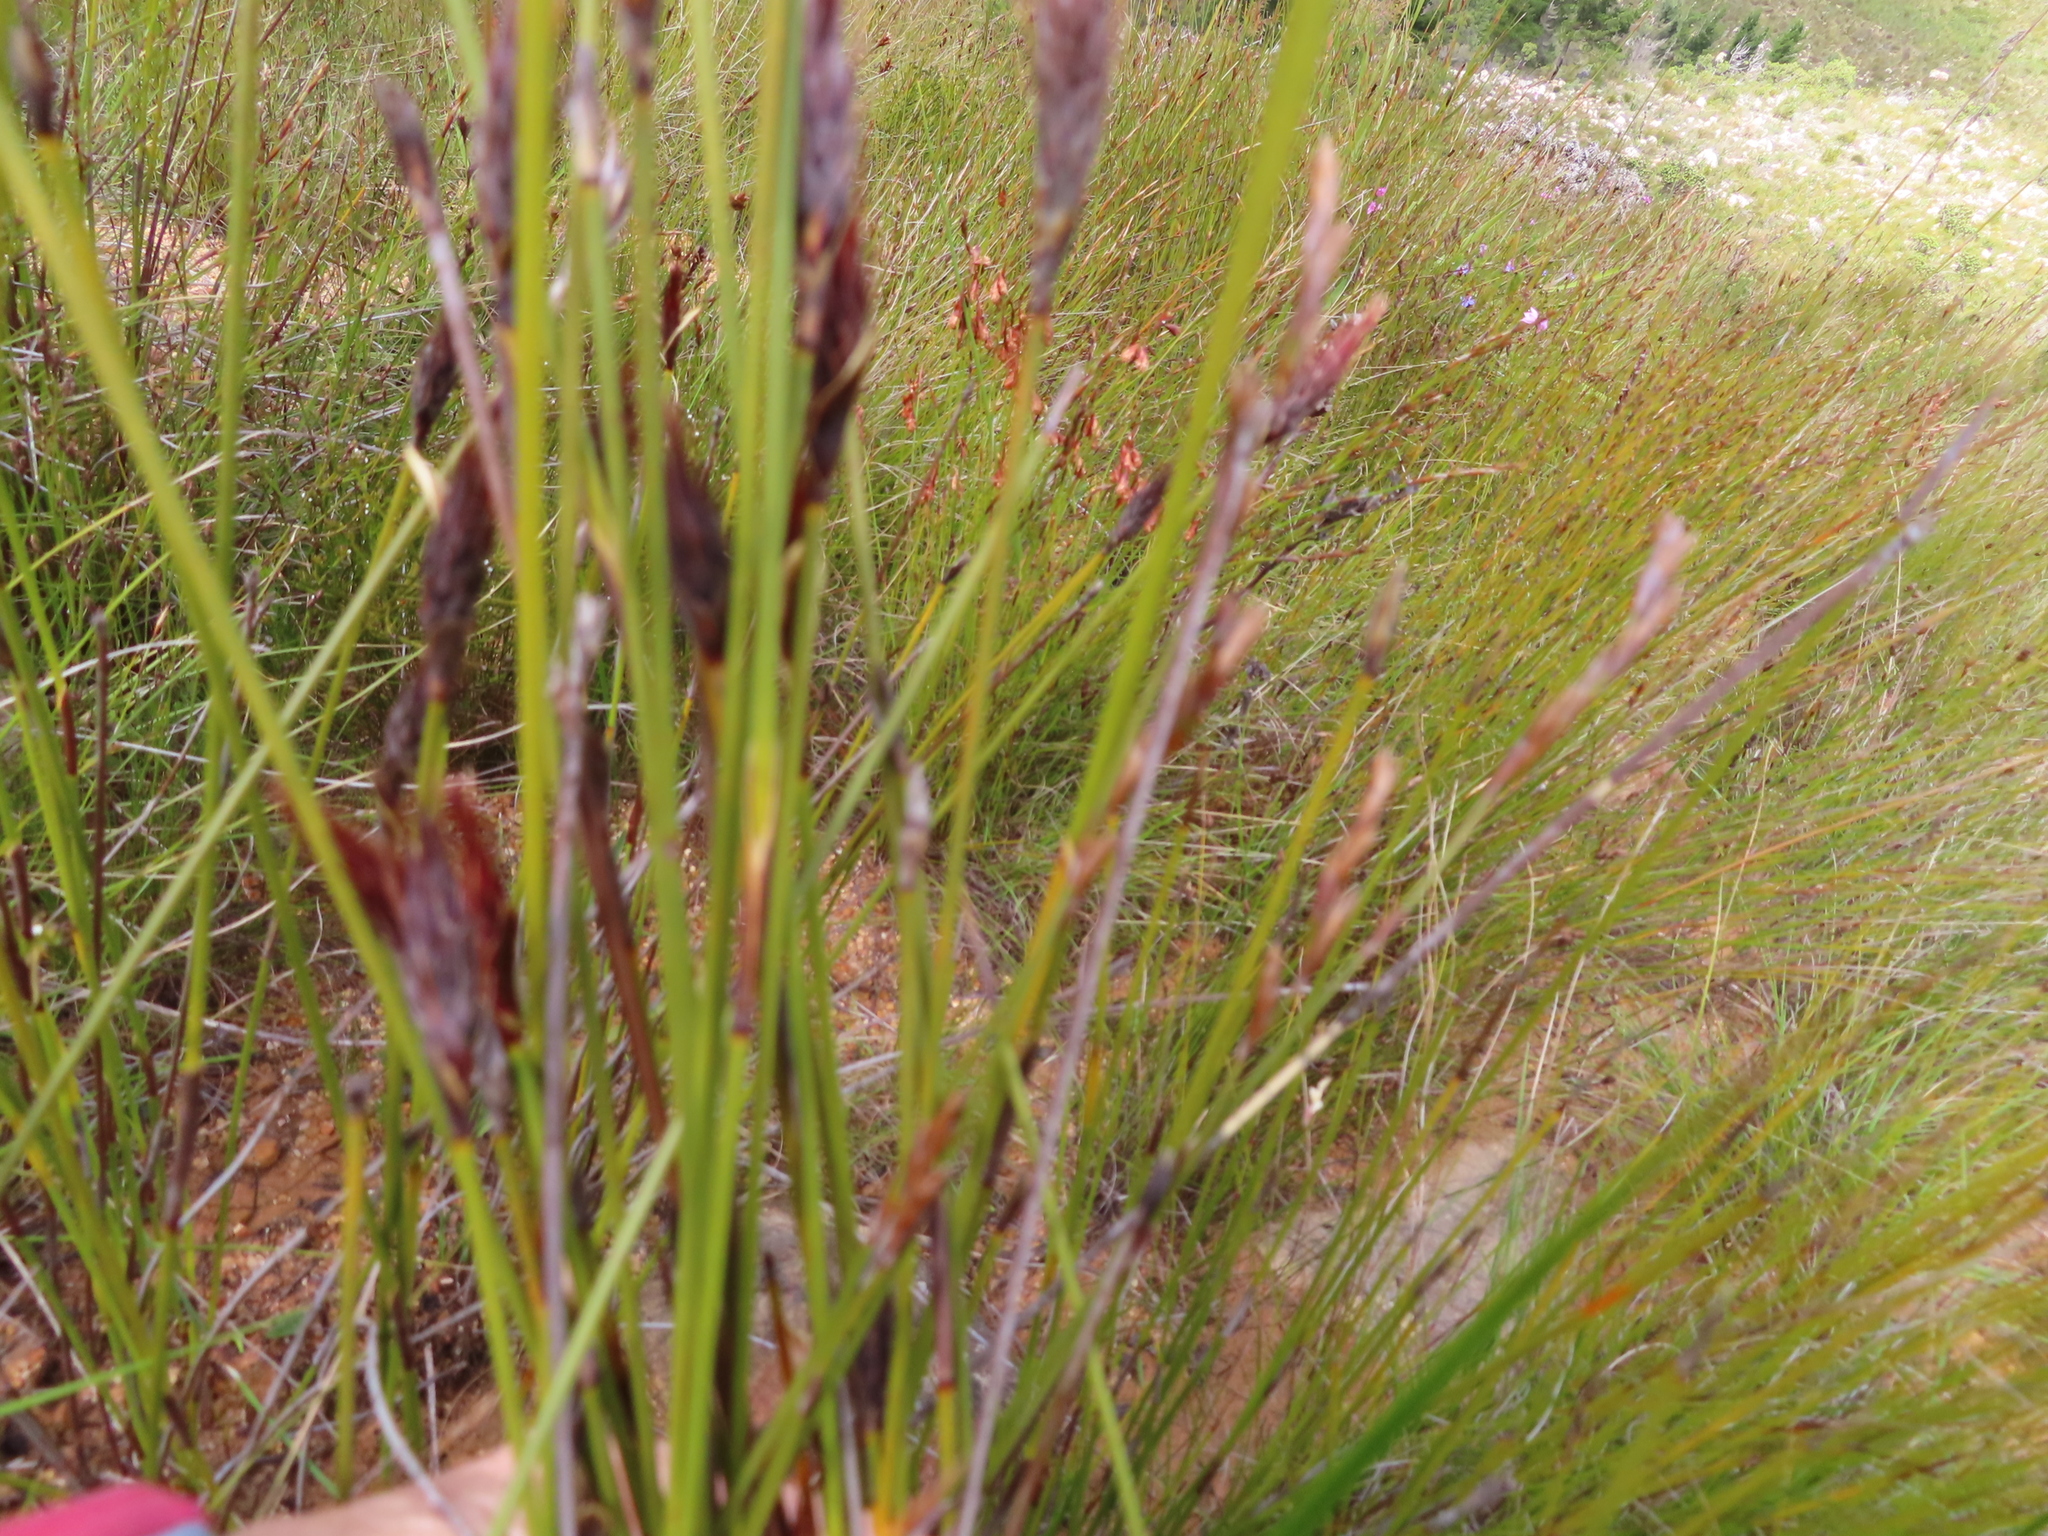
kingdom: Plantae
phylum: Tracheophyta
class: Liliopsida
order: Poales
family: Restionaceae
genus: Hypodiscus
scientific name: Hypodiscus aristatus
